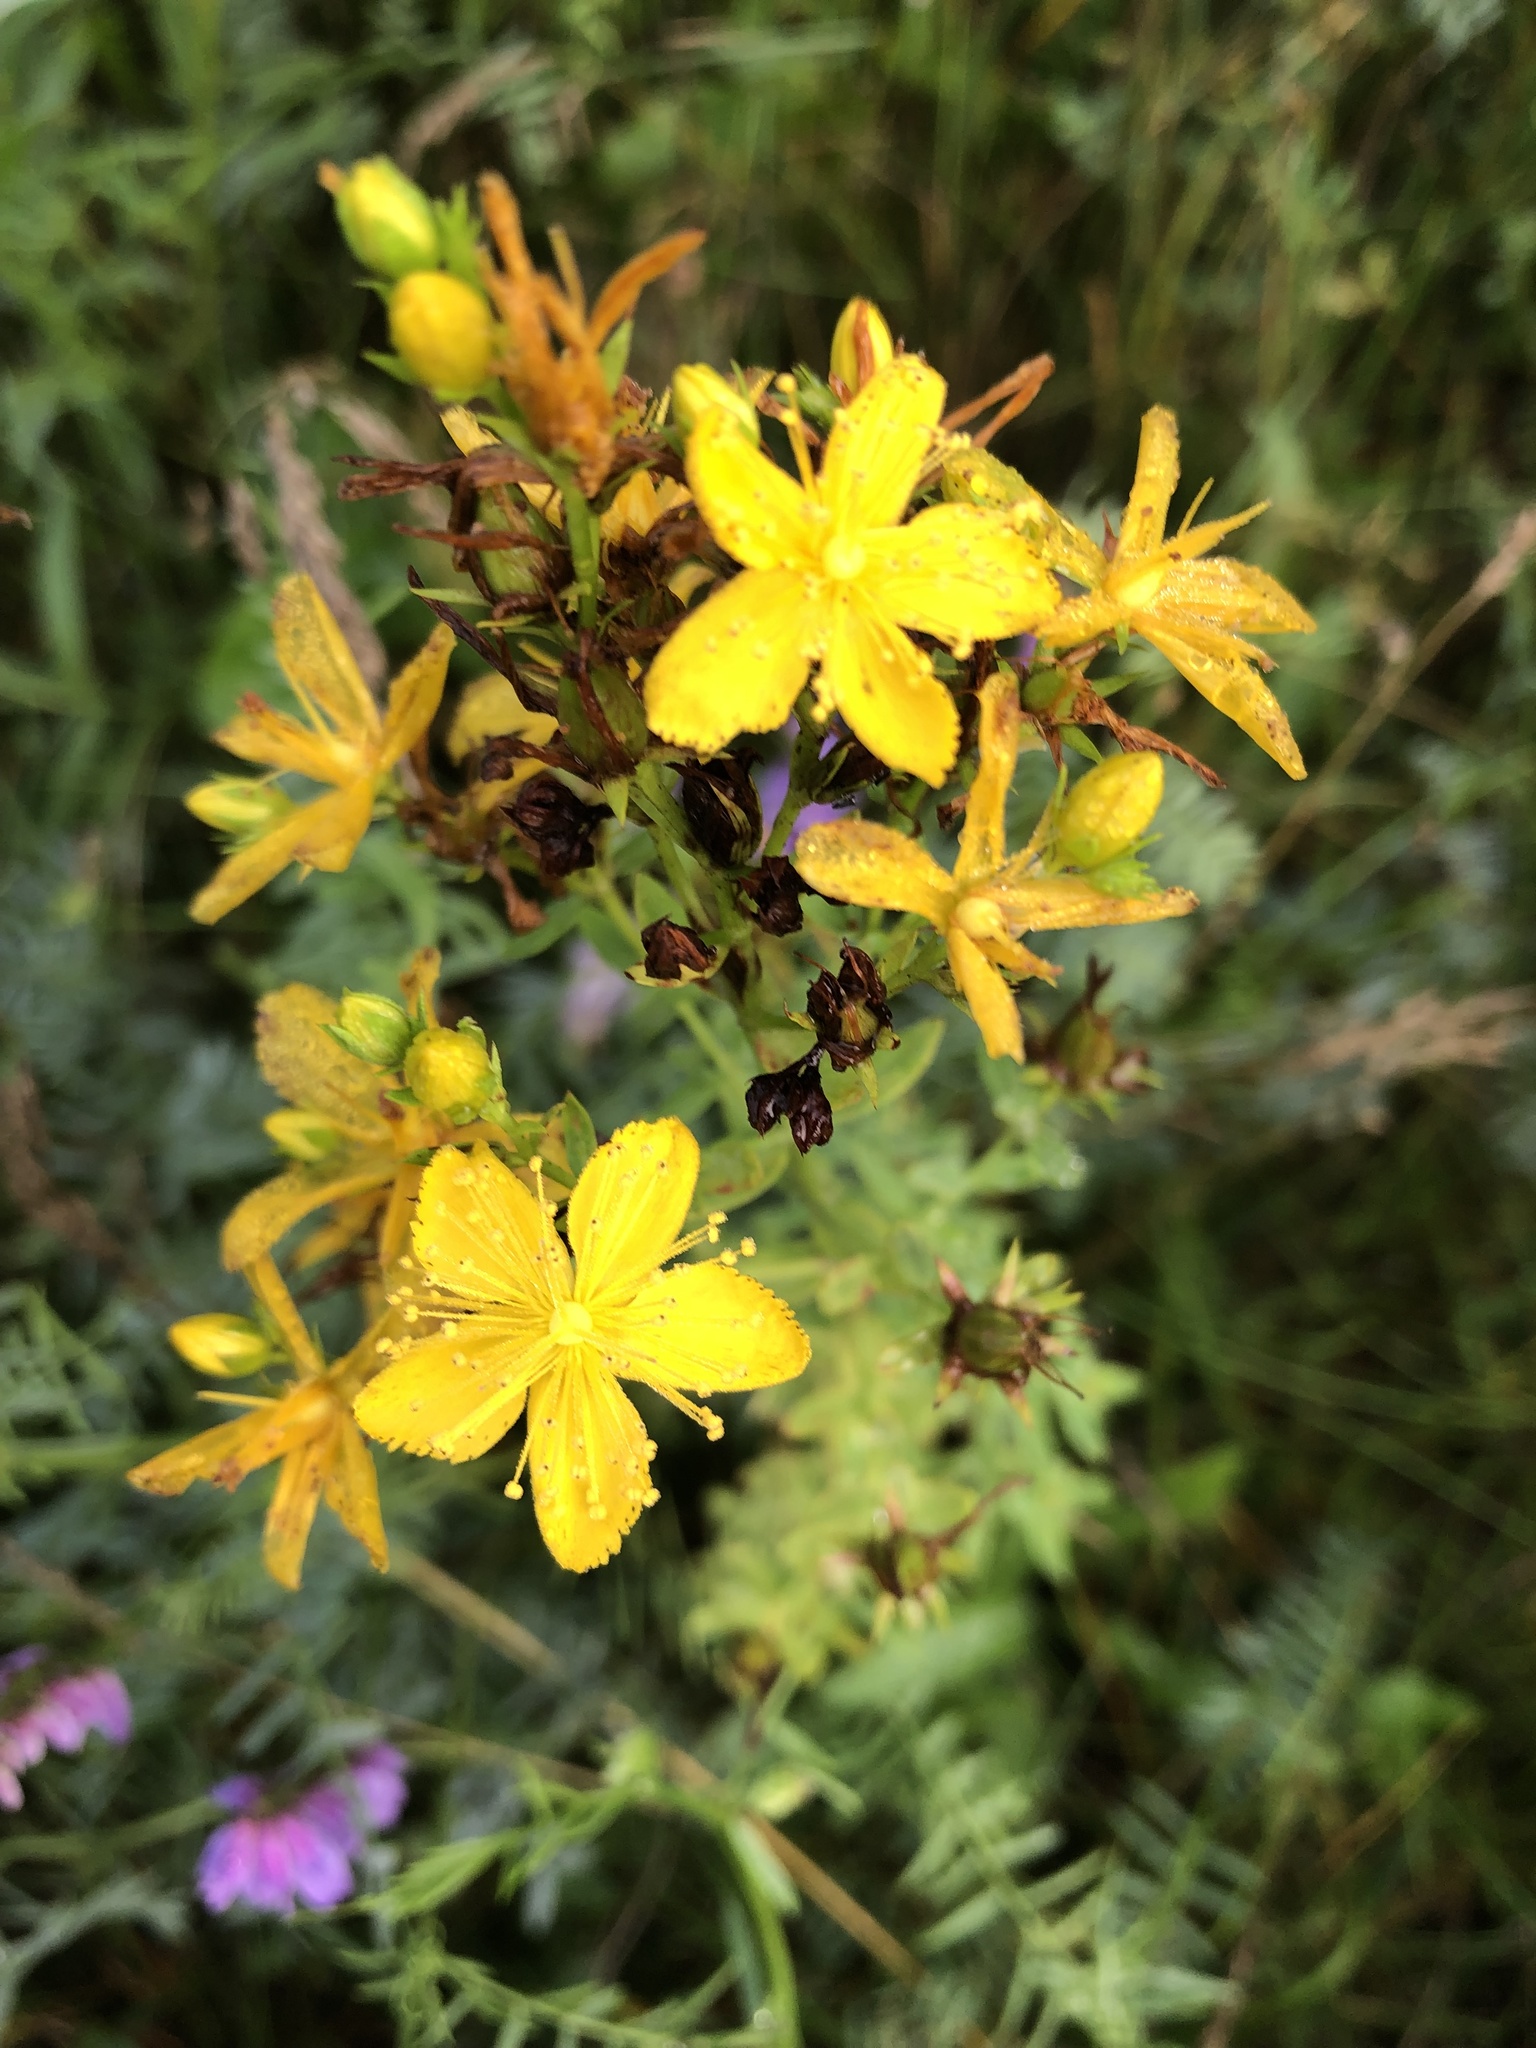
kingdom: Plantae
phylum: Tracheophyta
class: Magnoliopsida
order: Malpighiales
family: Hypericaceae
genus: Hypericum
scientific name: Hypericum perforatum
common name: Common st. johnswort
